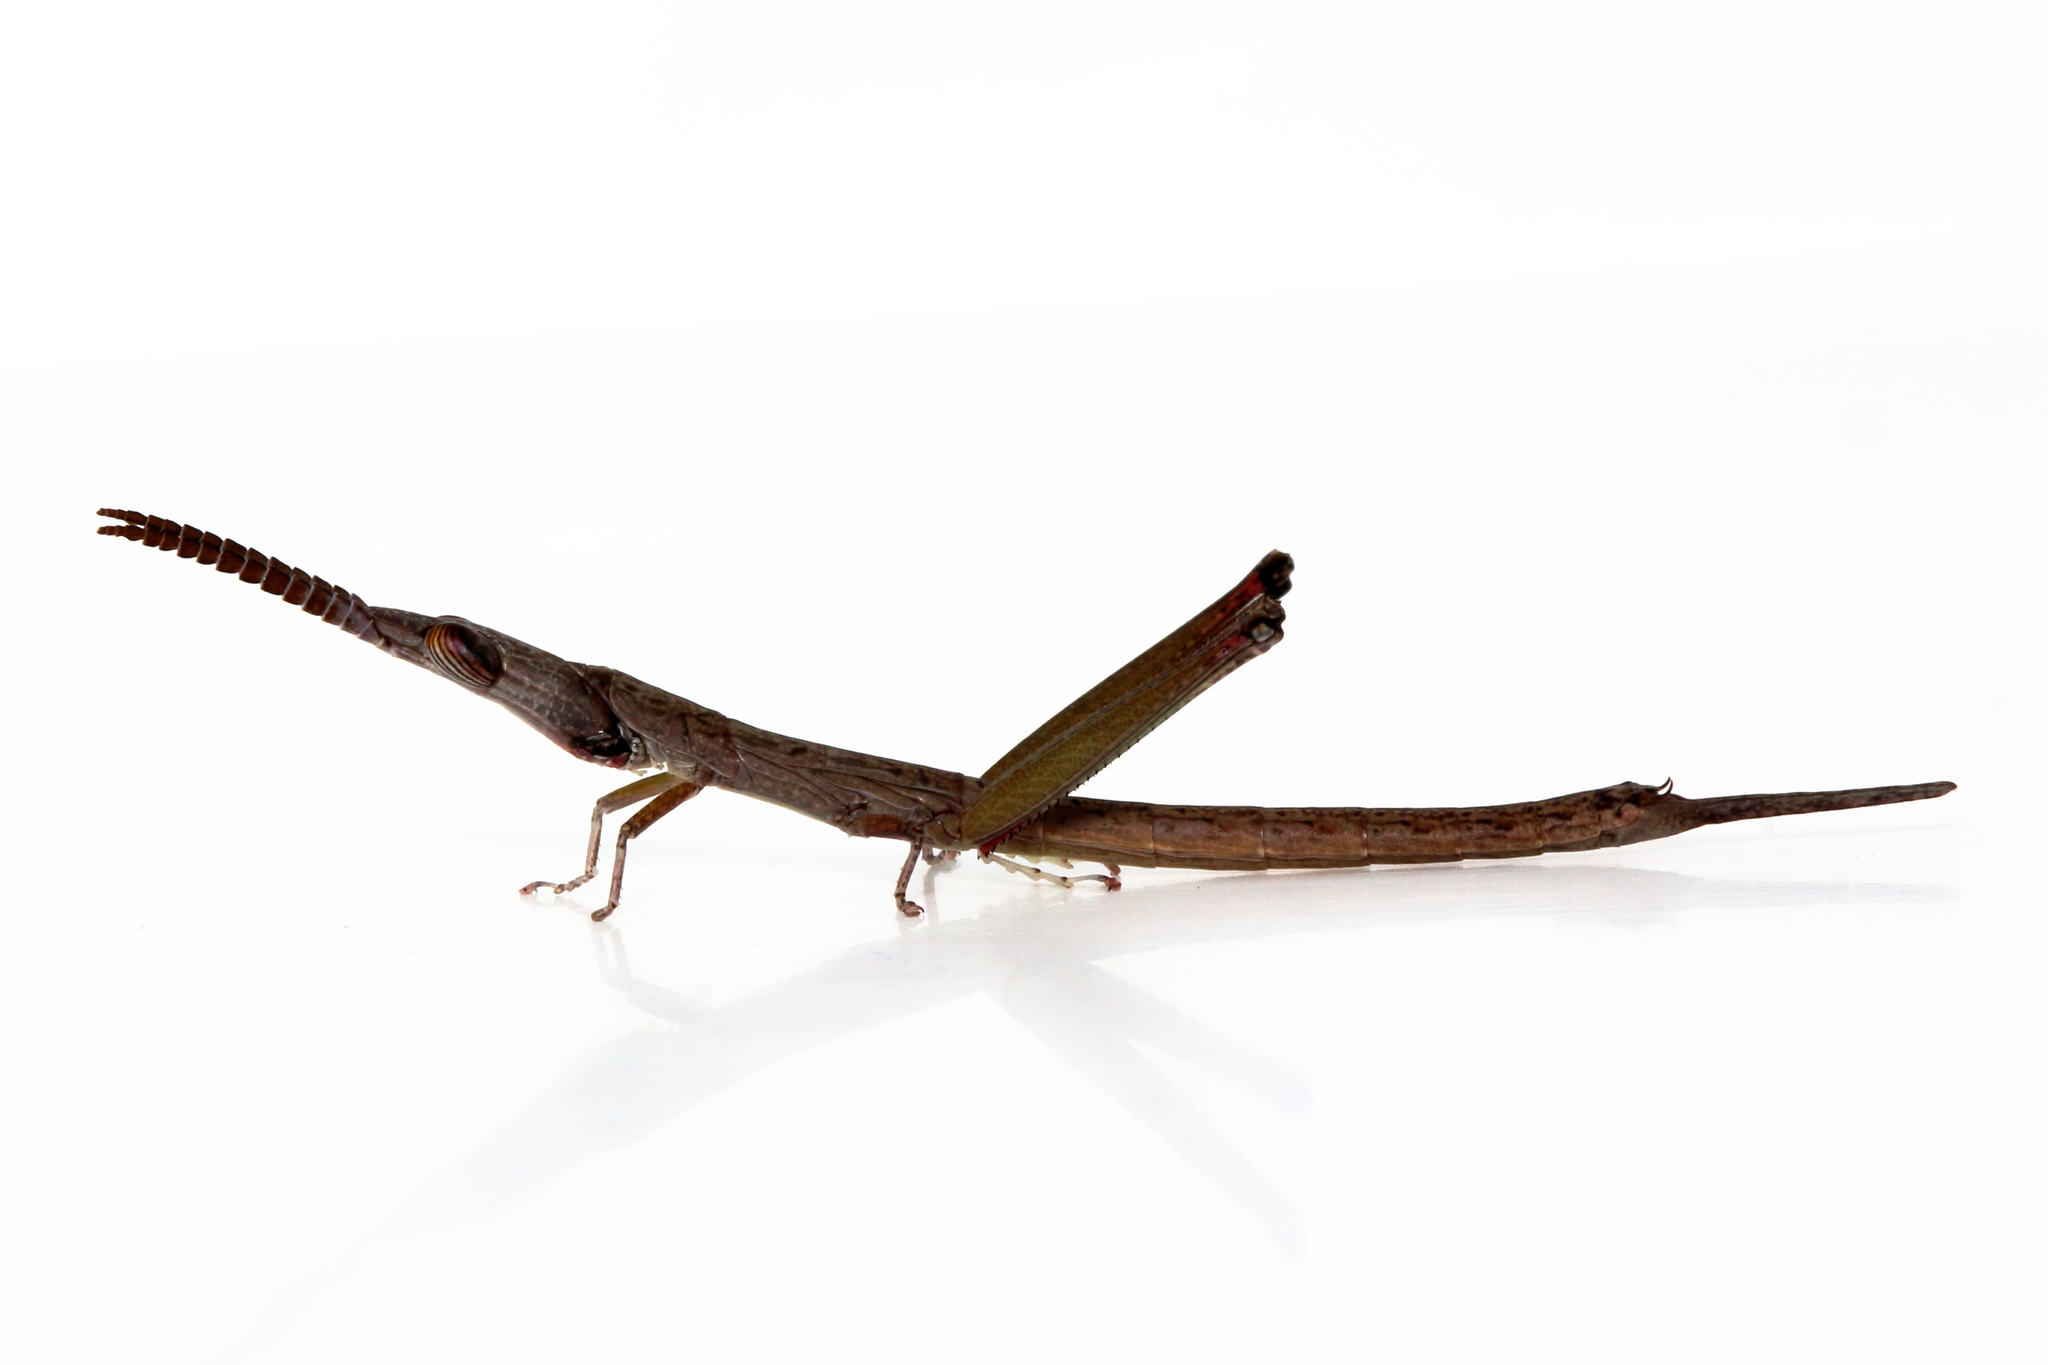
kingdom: Animalia
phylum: Arthropoda
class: Insecta
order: Orthoptera
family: Morabidae
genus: Warramaba
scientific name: Warramaba grandis
